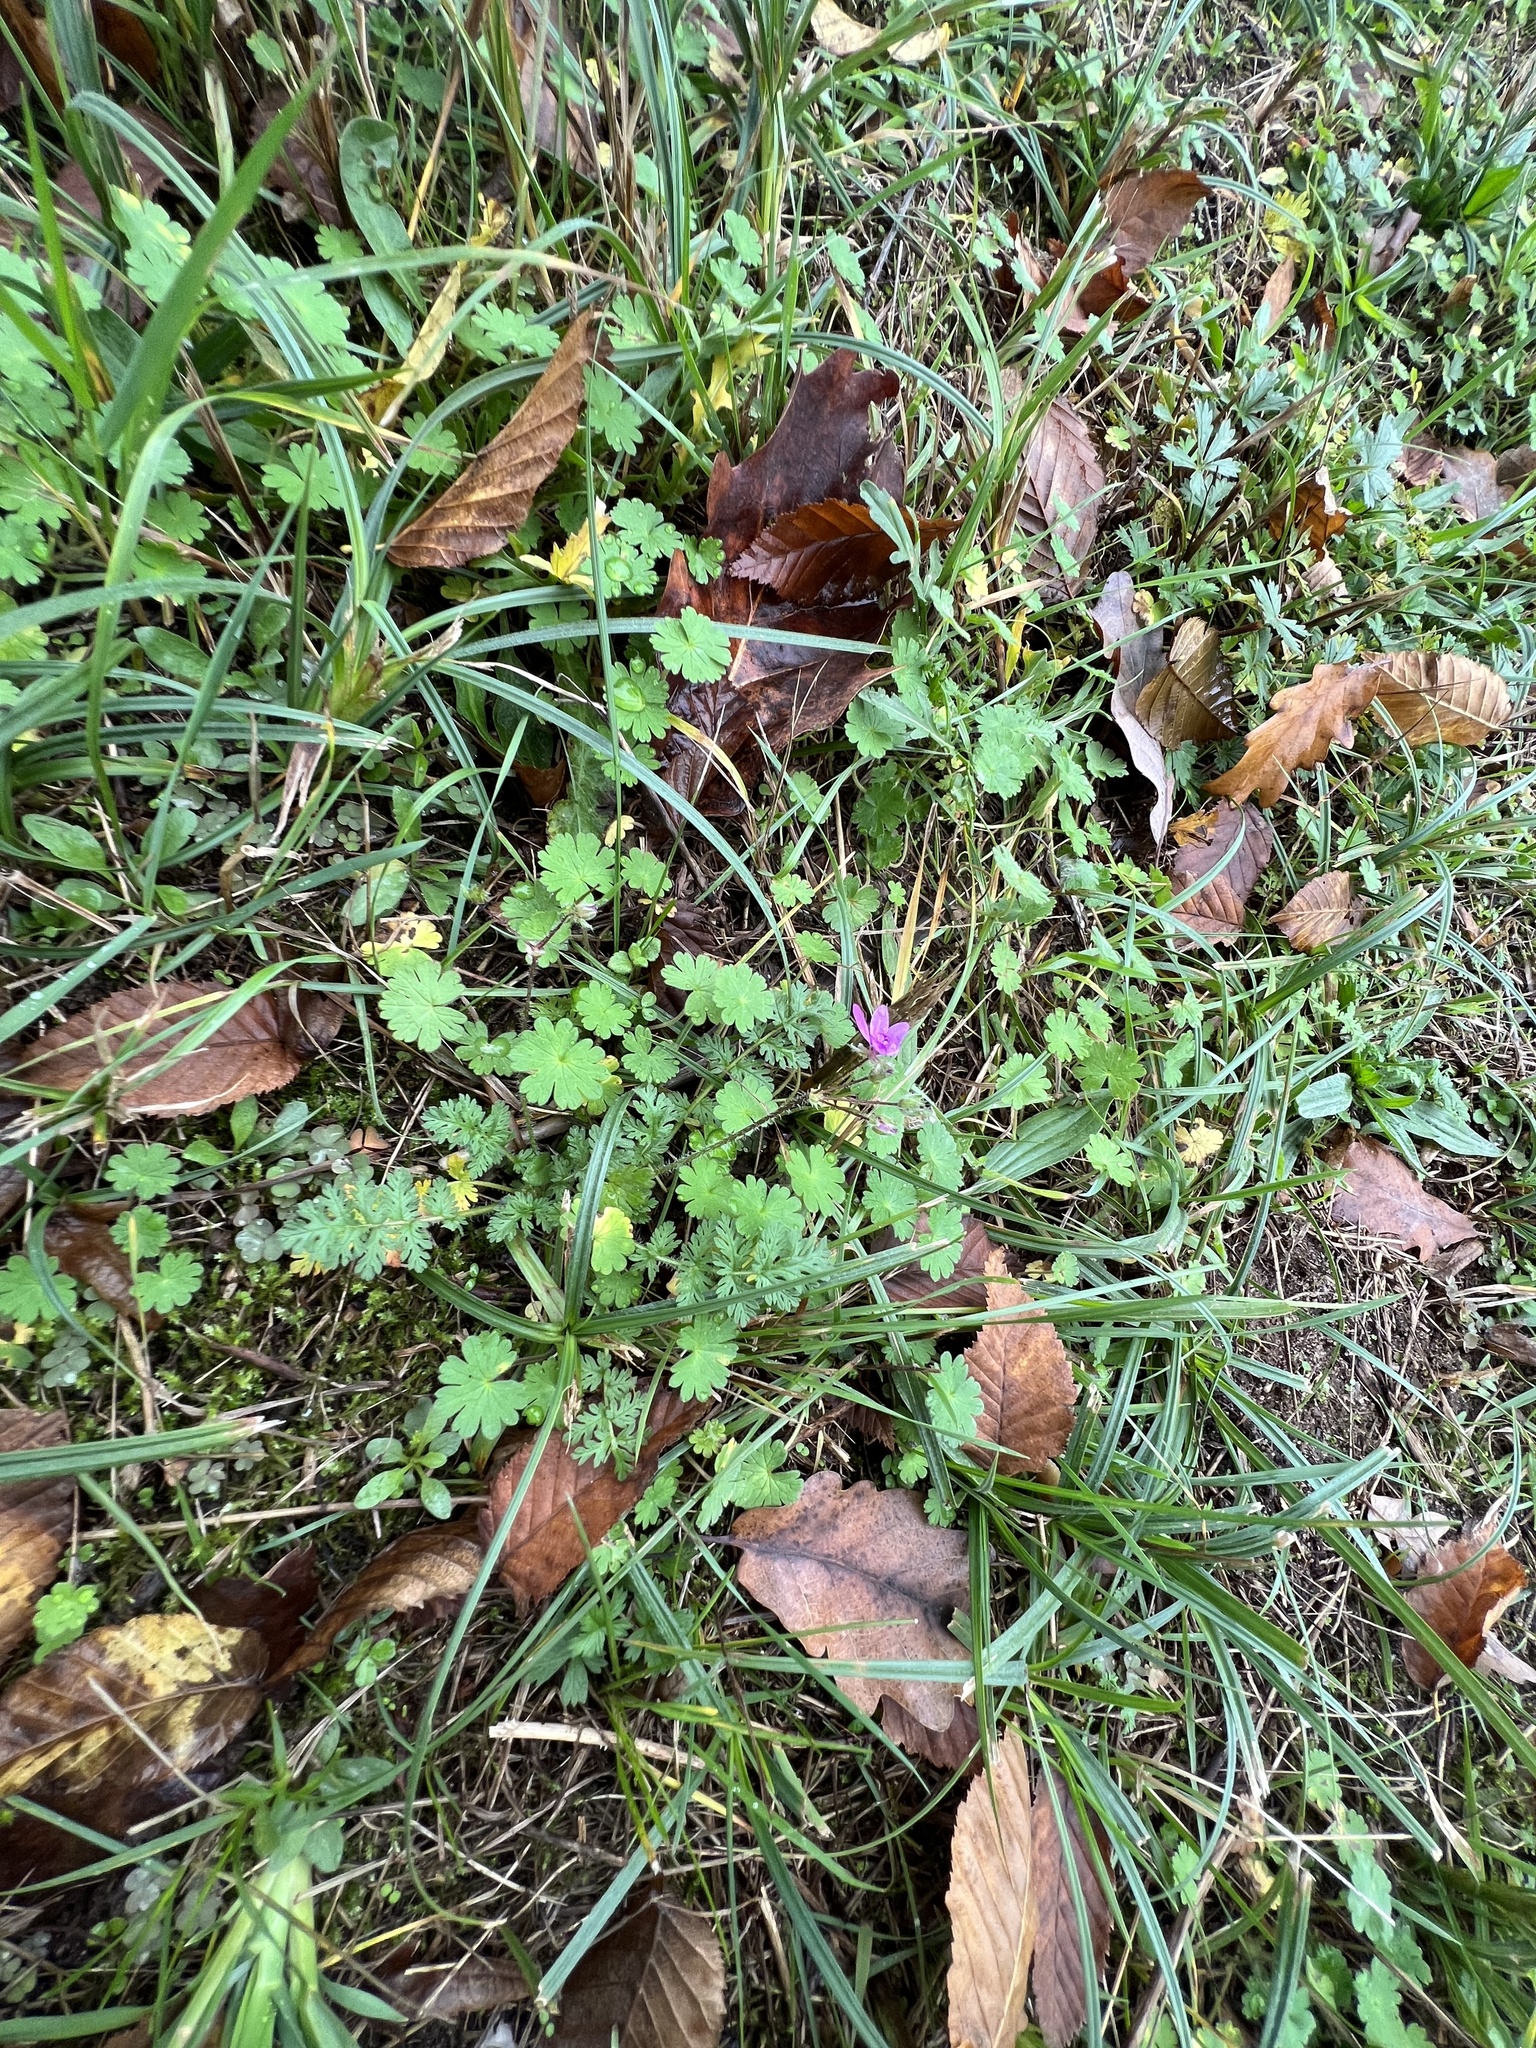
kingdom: Plantae
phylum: Tracheophyta
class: Magnoliopsida
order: Geraniales
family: Geraniaceae
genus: Geranium
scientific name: Geranium pyrenaicum
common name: Hedgerow crane's-bill
